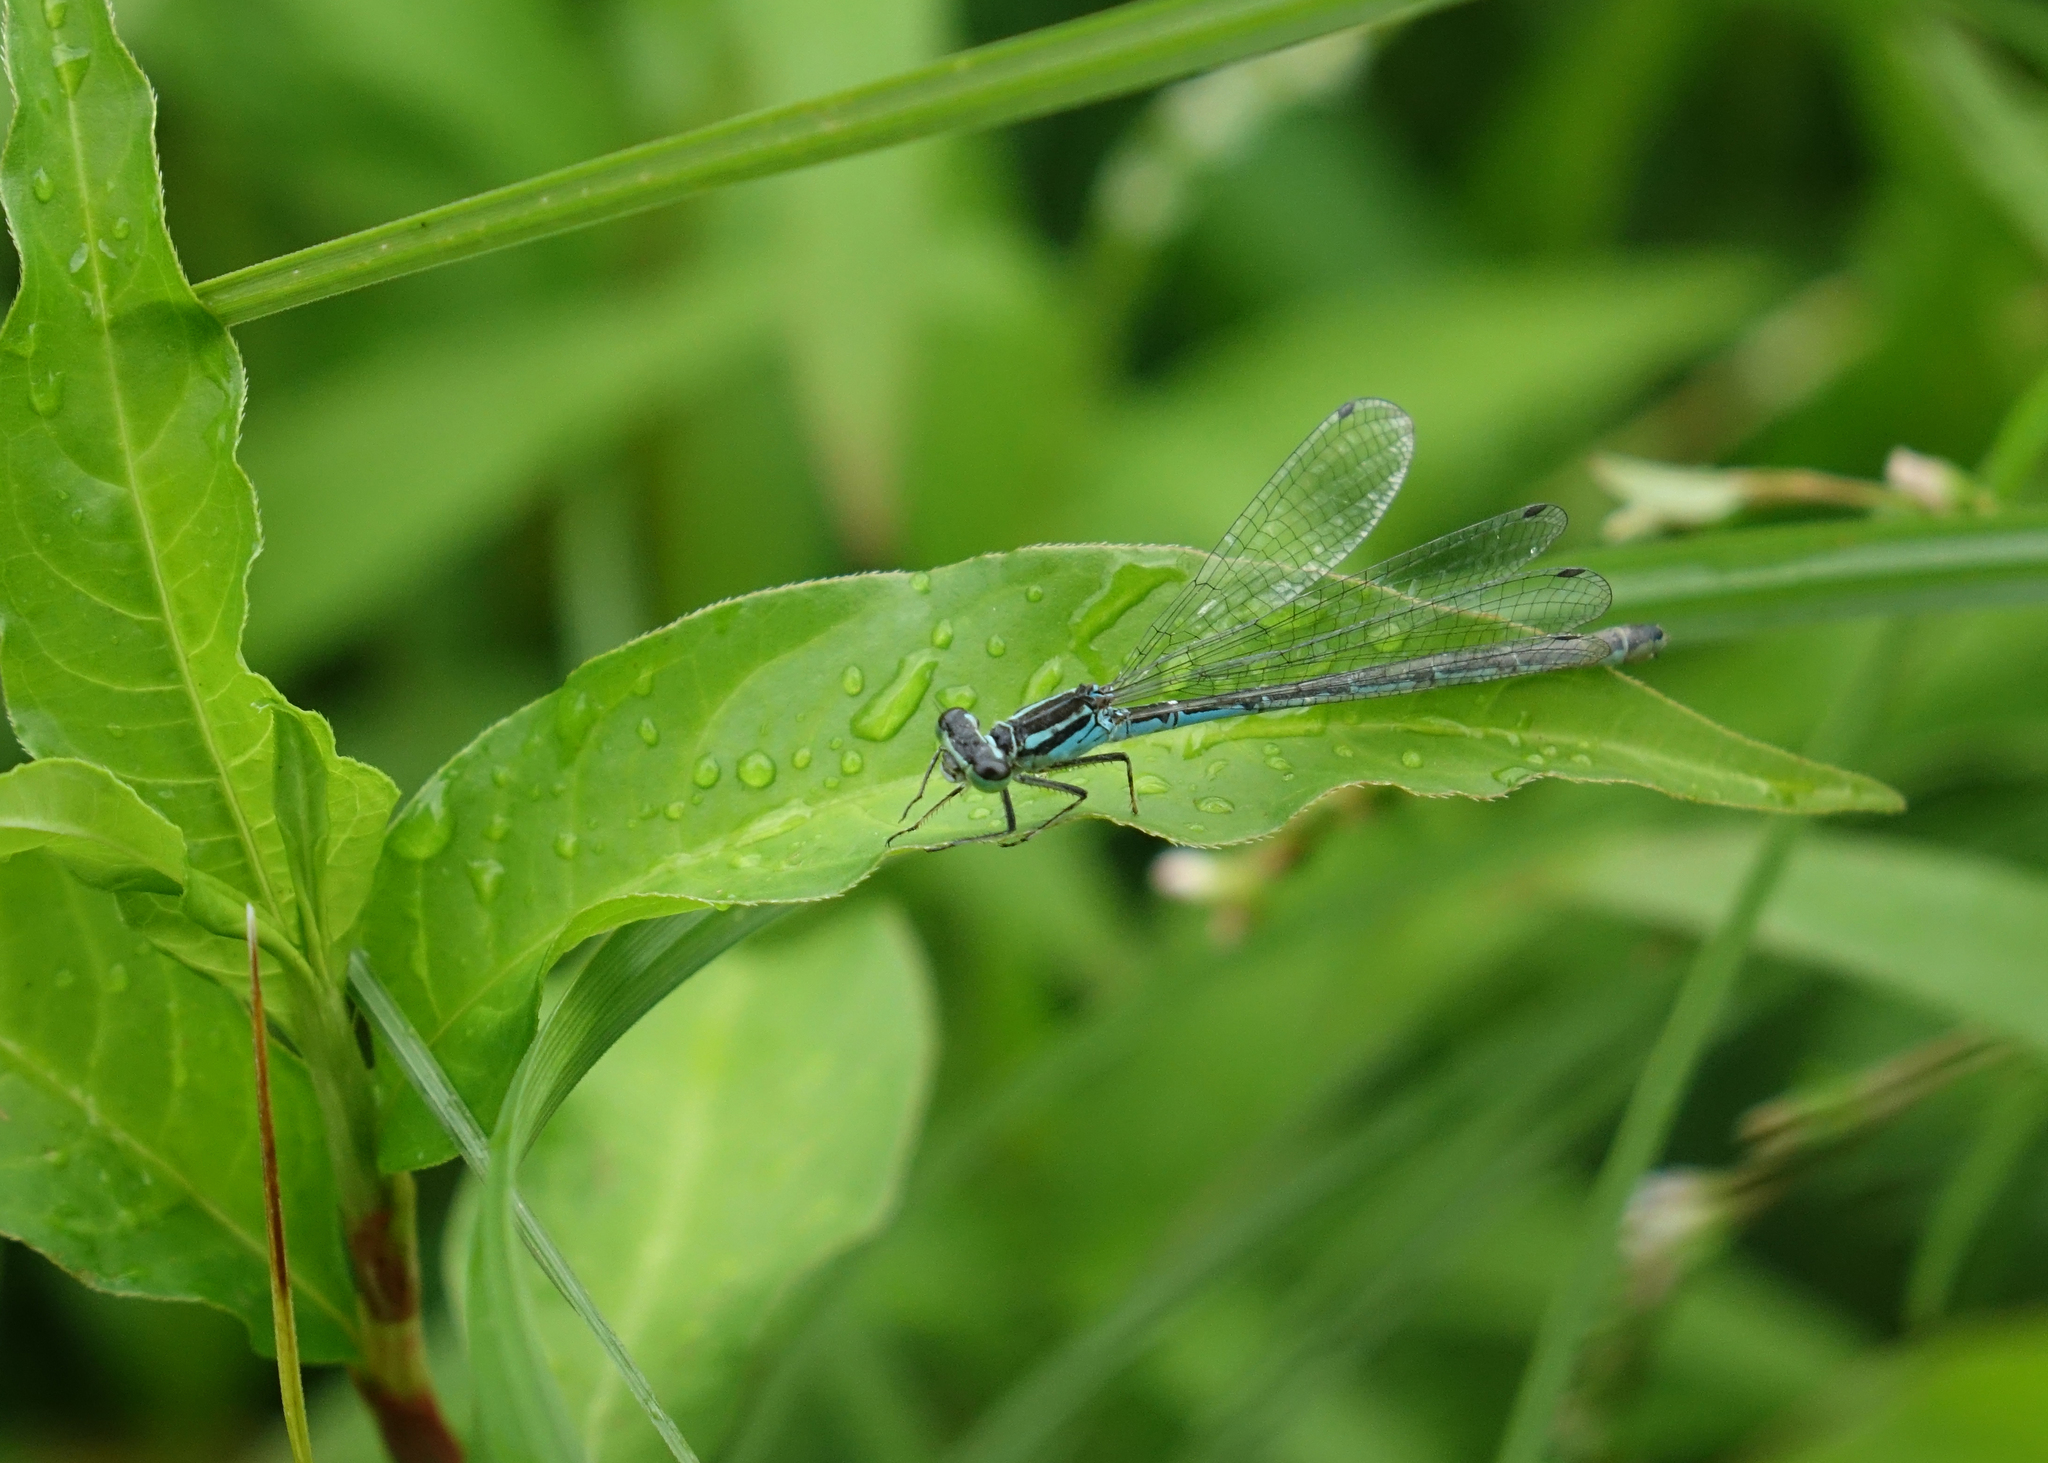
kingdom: Animalia
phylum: Arthropoda
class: Insecta
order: Odonata
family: Coenagrionidae
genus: Coenagrion
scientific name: Coenagrion puella
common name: Azure damselfly
